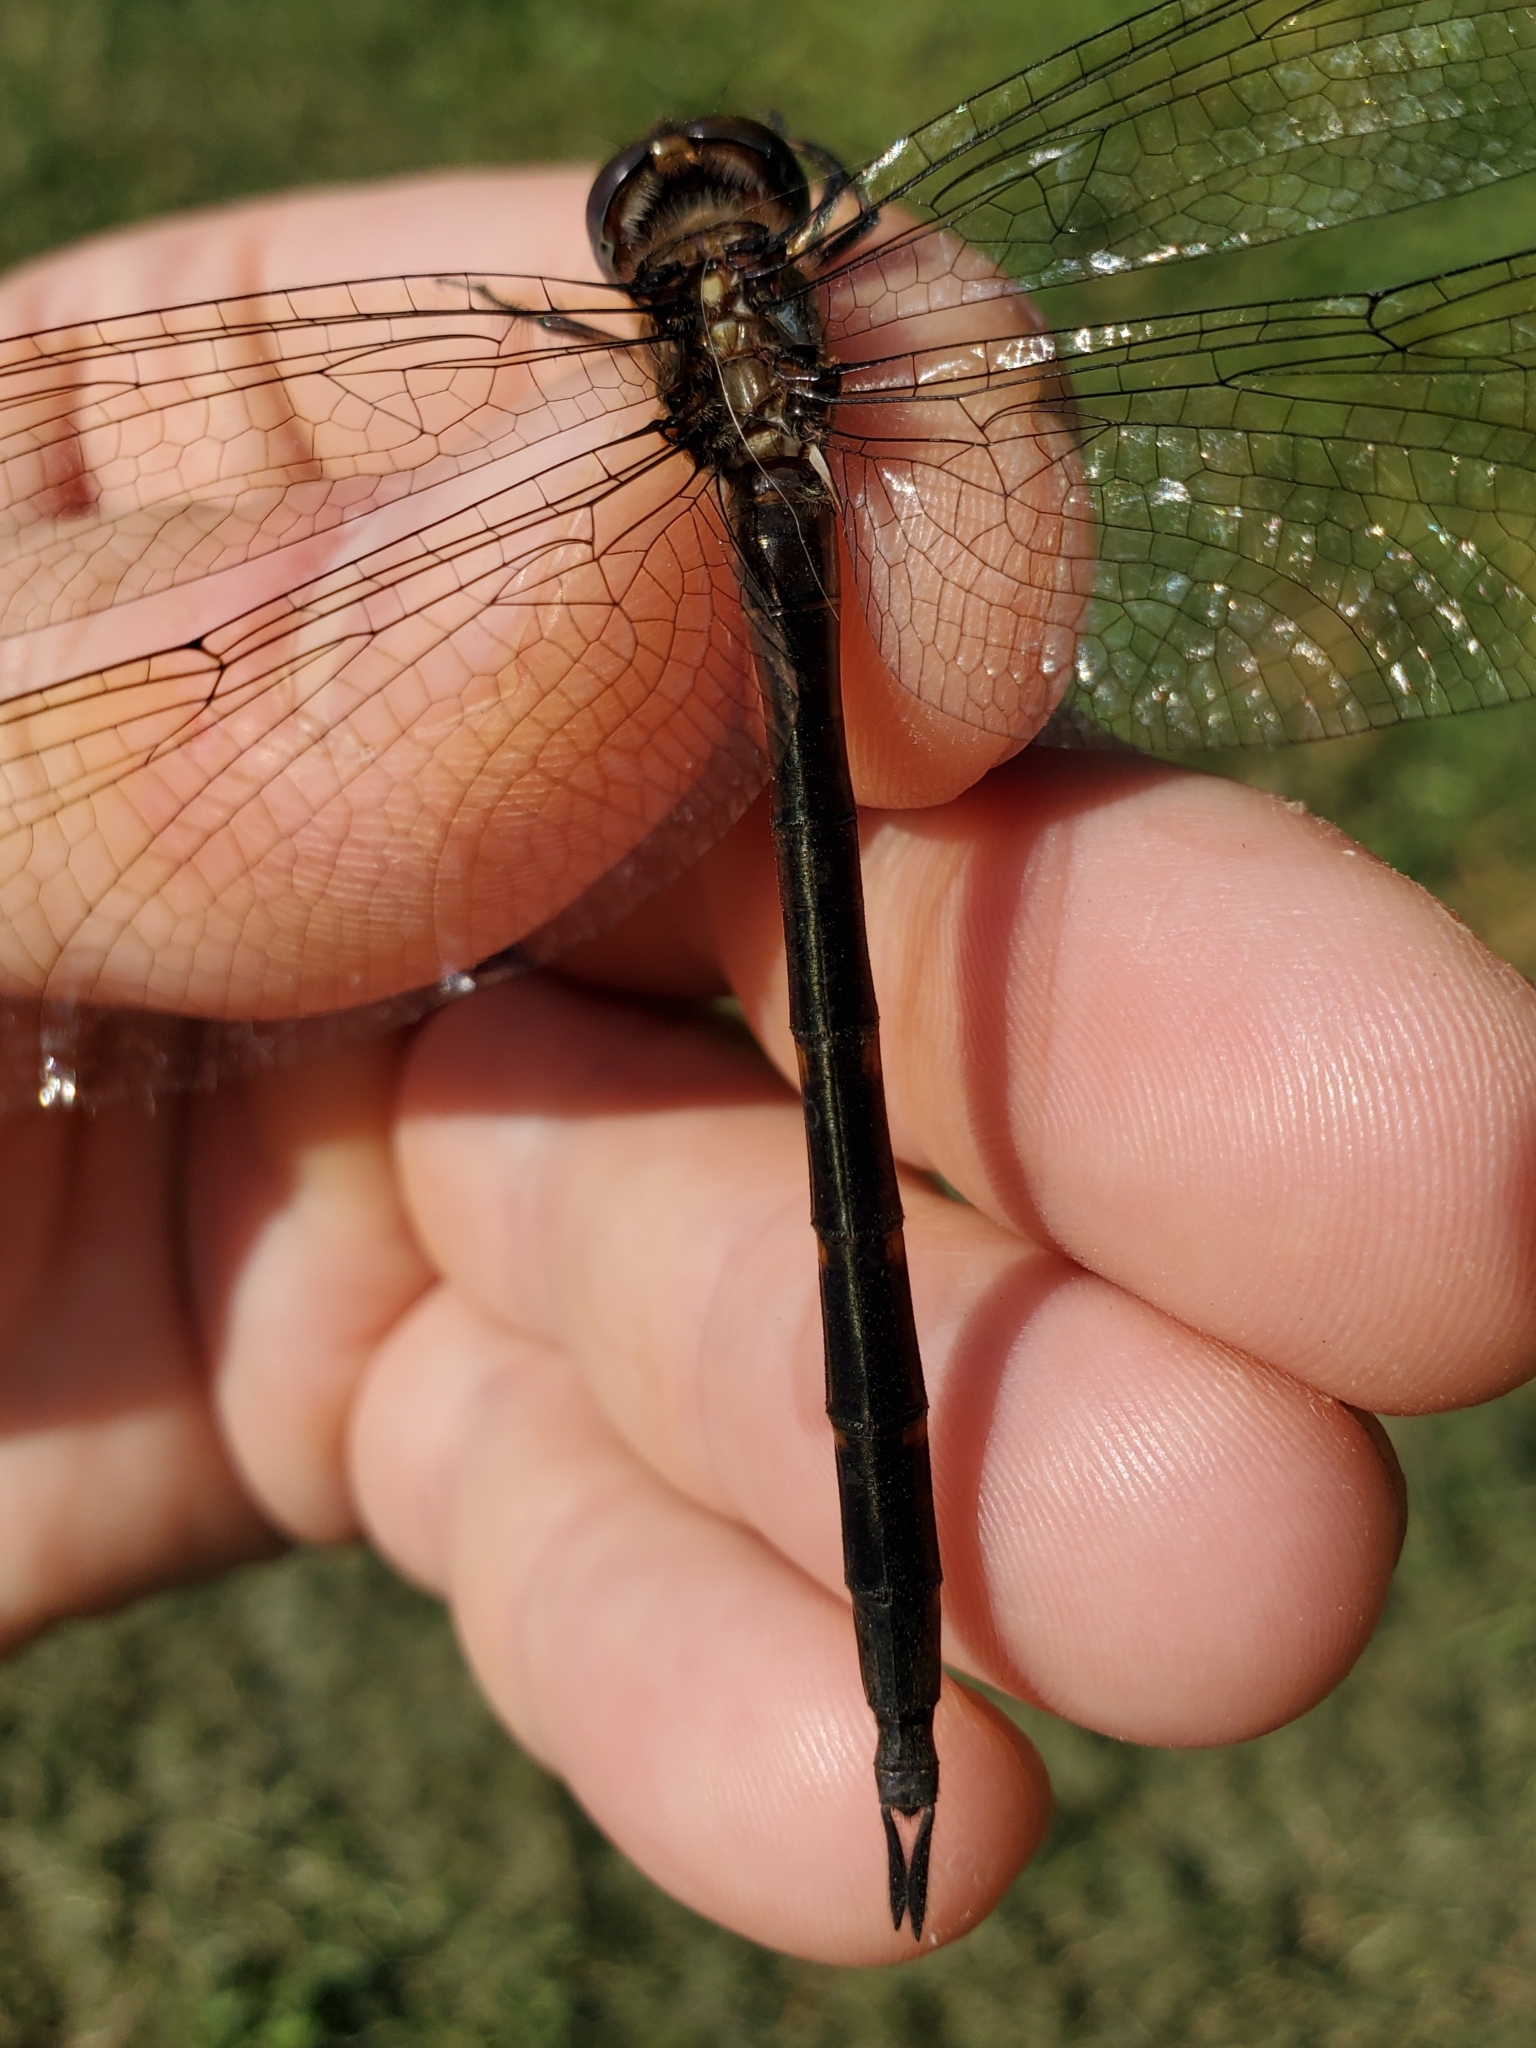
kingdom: Animalia
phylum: Arthropoda
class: Insecta
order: Odonata
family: Corduliidae
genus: Somatochlora
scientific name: Somatochlora linearis
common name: Mocha emerald
